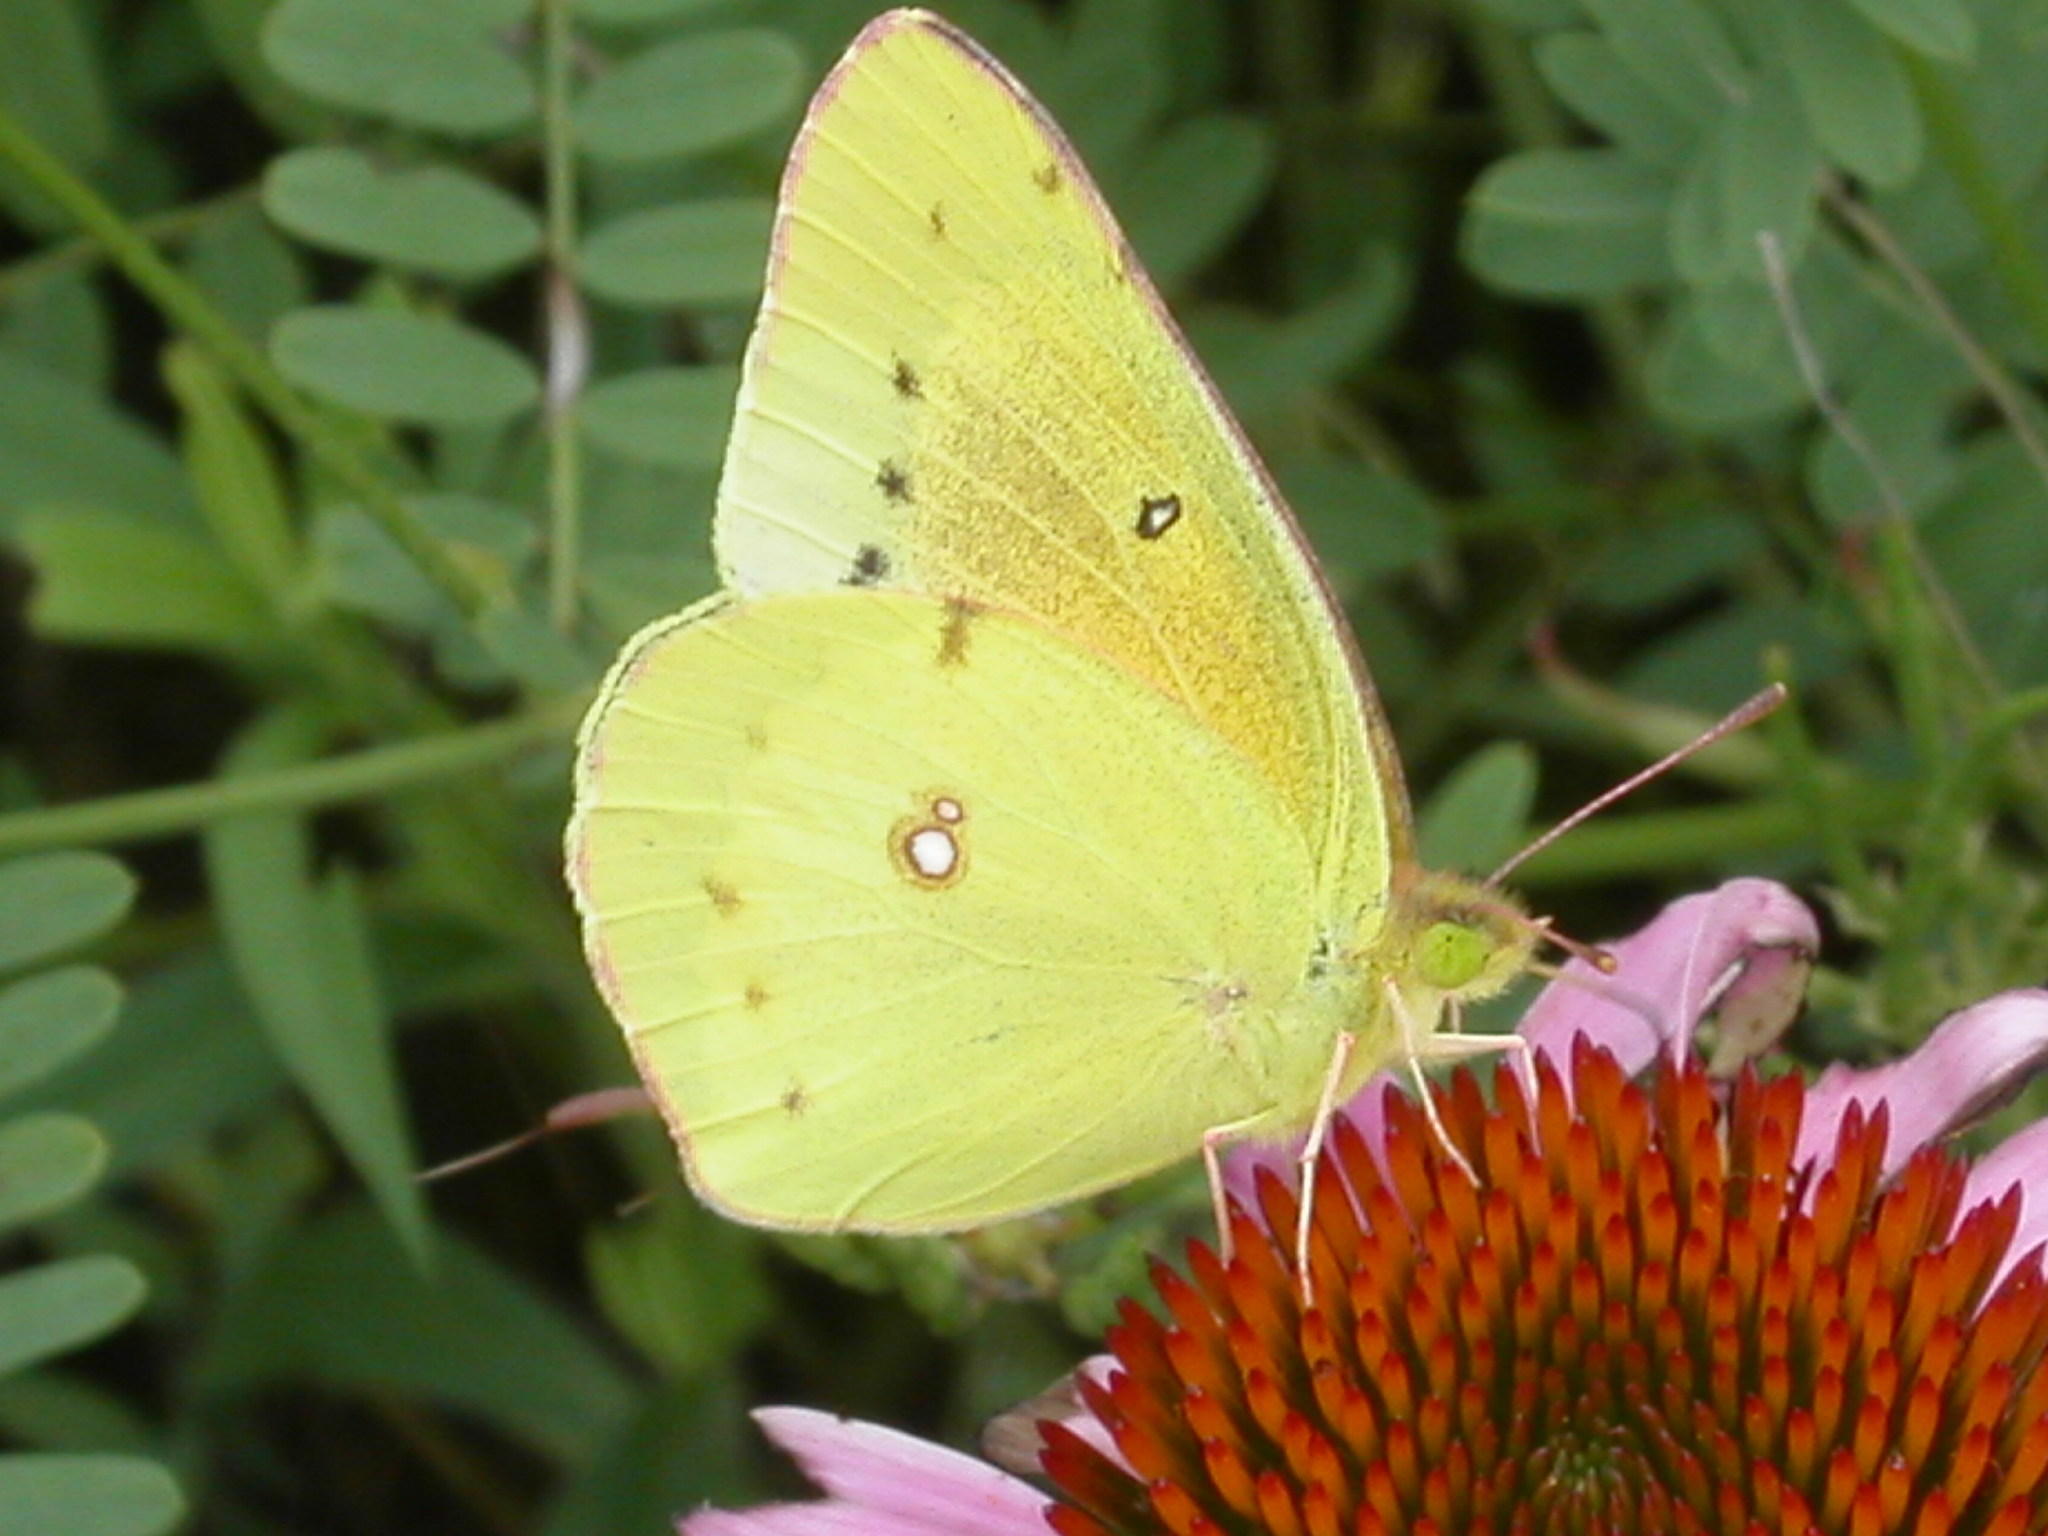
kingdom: Animalia
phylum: Arthropoda
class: Insecta
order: Lepidoptera
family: Pieridae
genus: Colias
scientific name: Colias eurytheme
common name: Alfalfa butterfly
